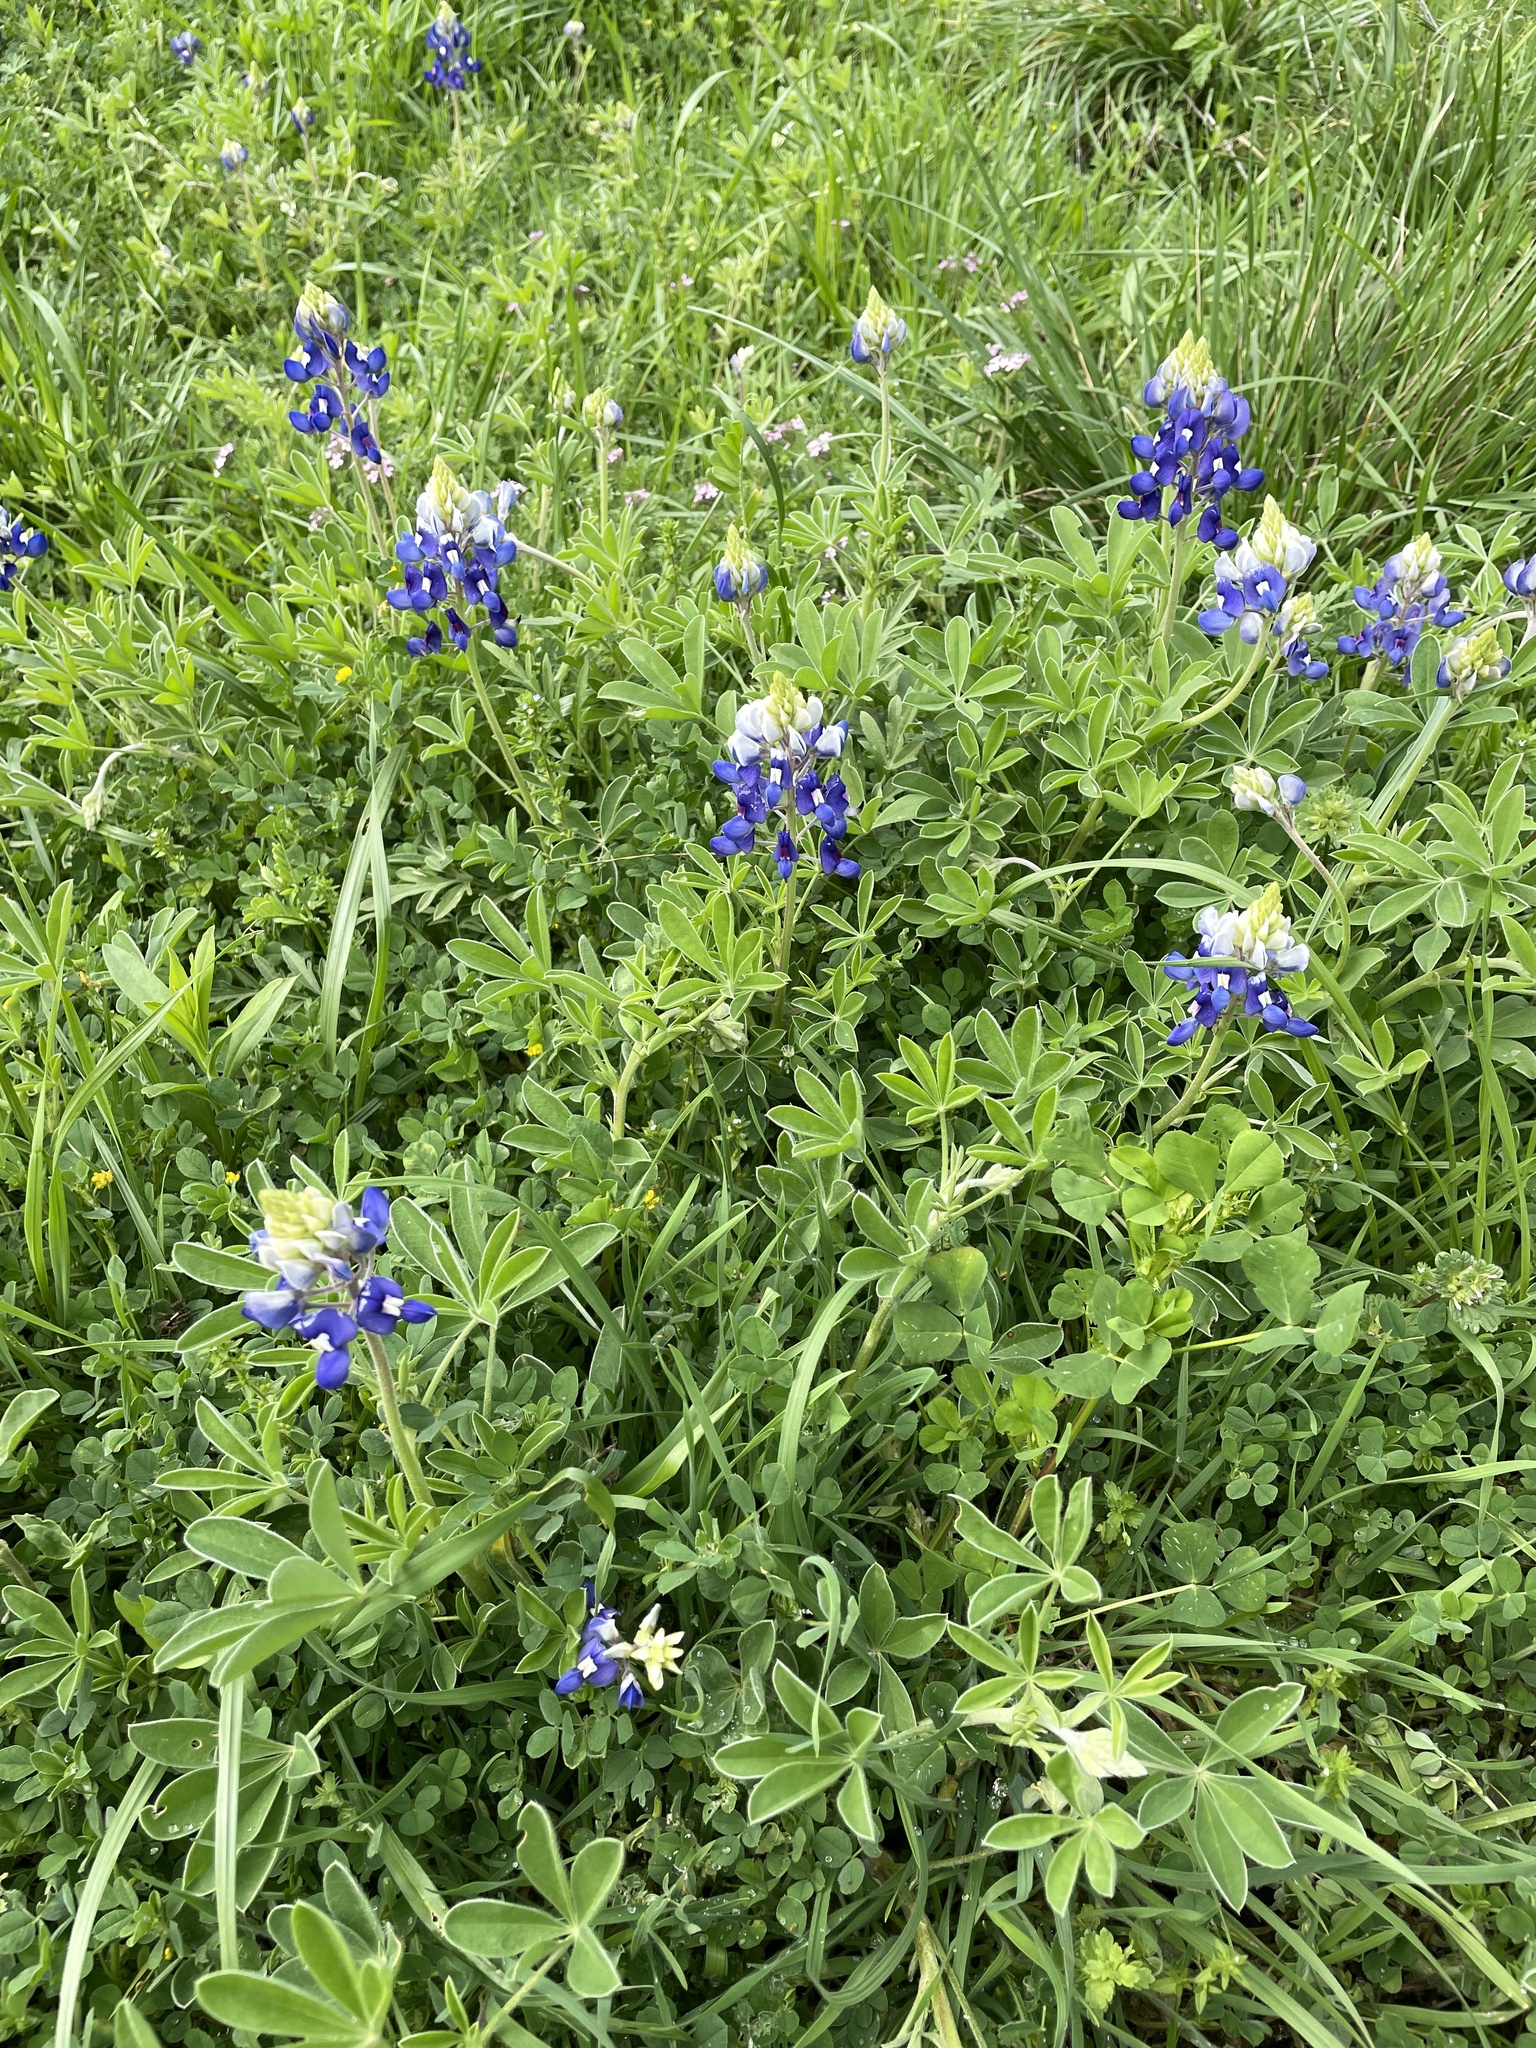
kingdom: Plantae
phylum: Tracheophyta
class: Magnoliopsida
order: Fabales
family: Fabaceae
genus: Lupinus
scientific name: Lupinus texensis
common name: Texas bluebonnet
